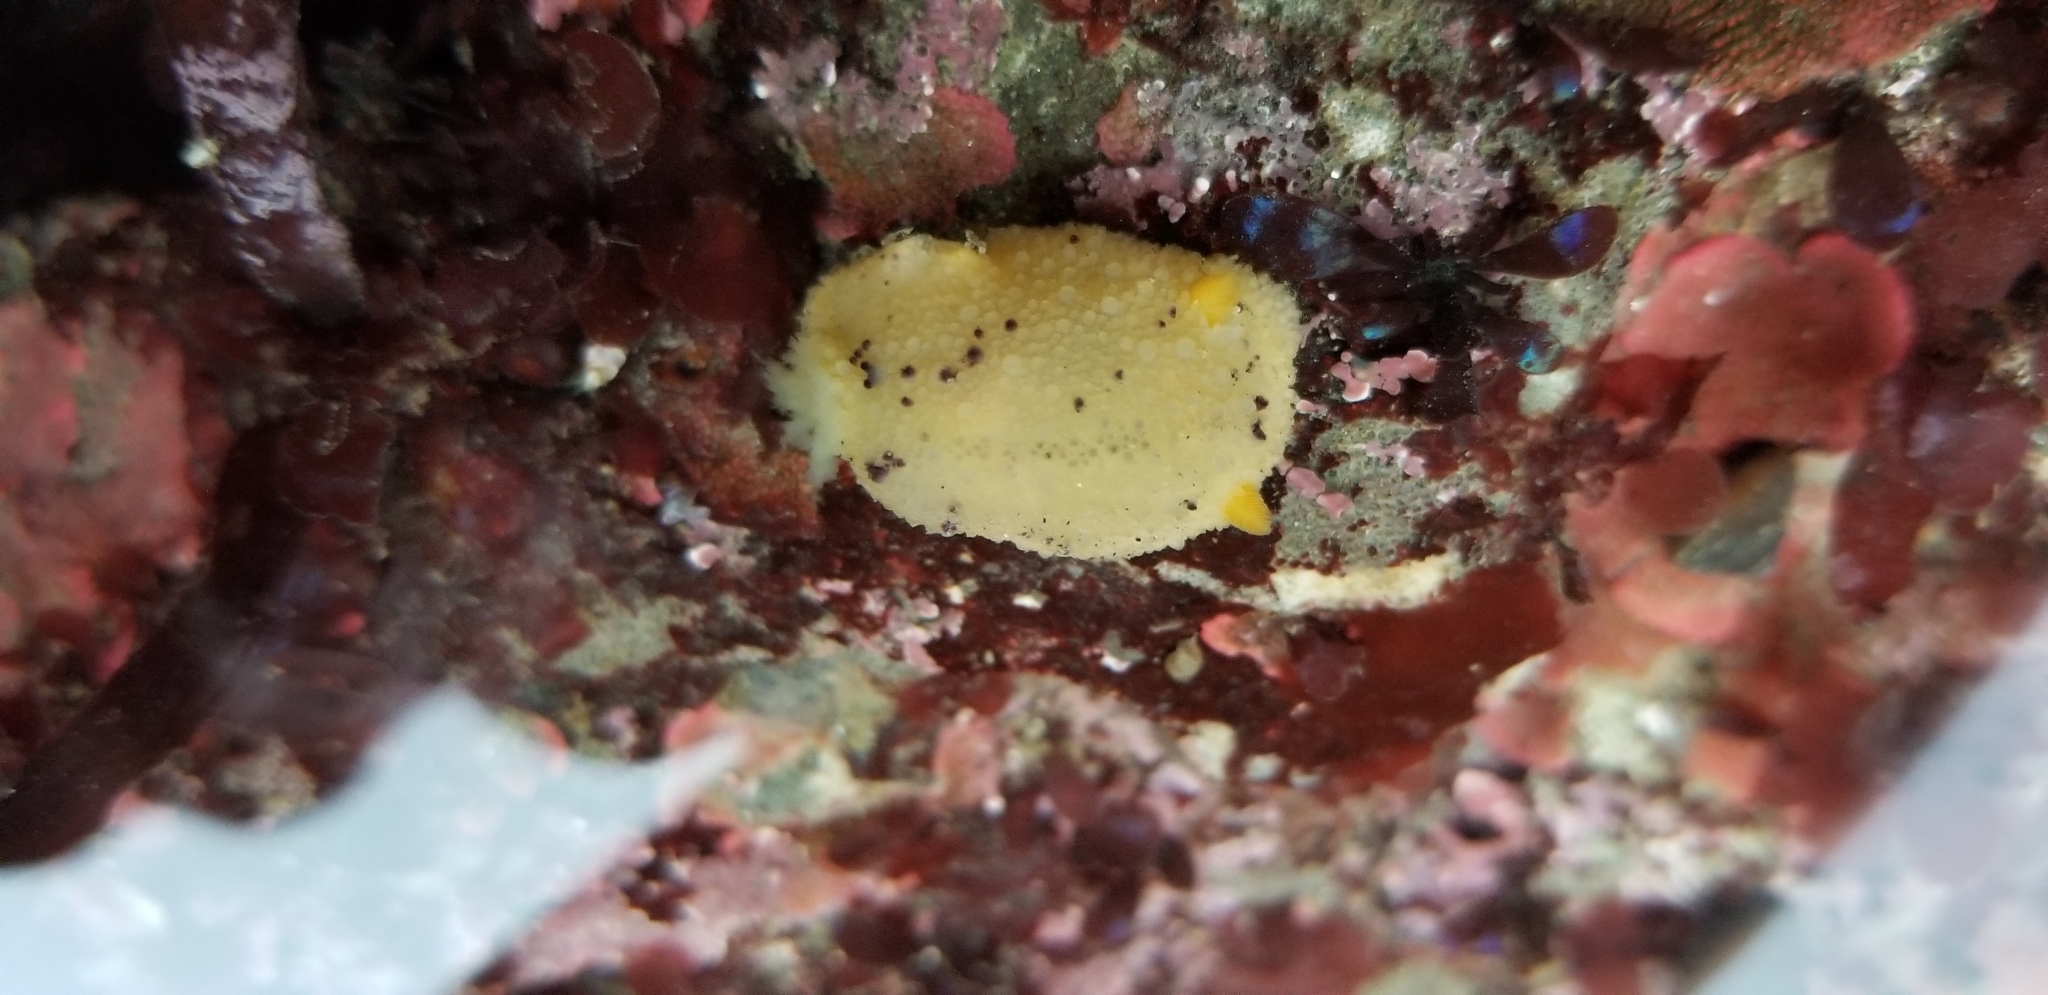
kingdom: Animalia
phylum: Mollusca
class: Gastropoda
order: Nudibranchia
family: Dorididae
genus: Doris
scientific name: Doris montereyensis
